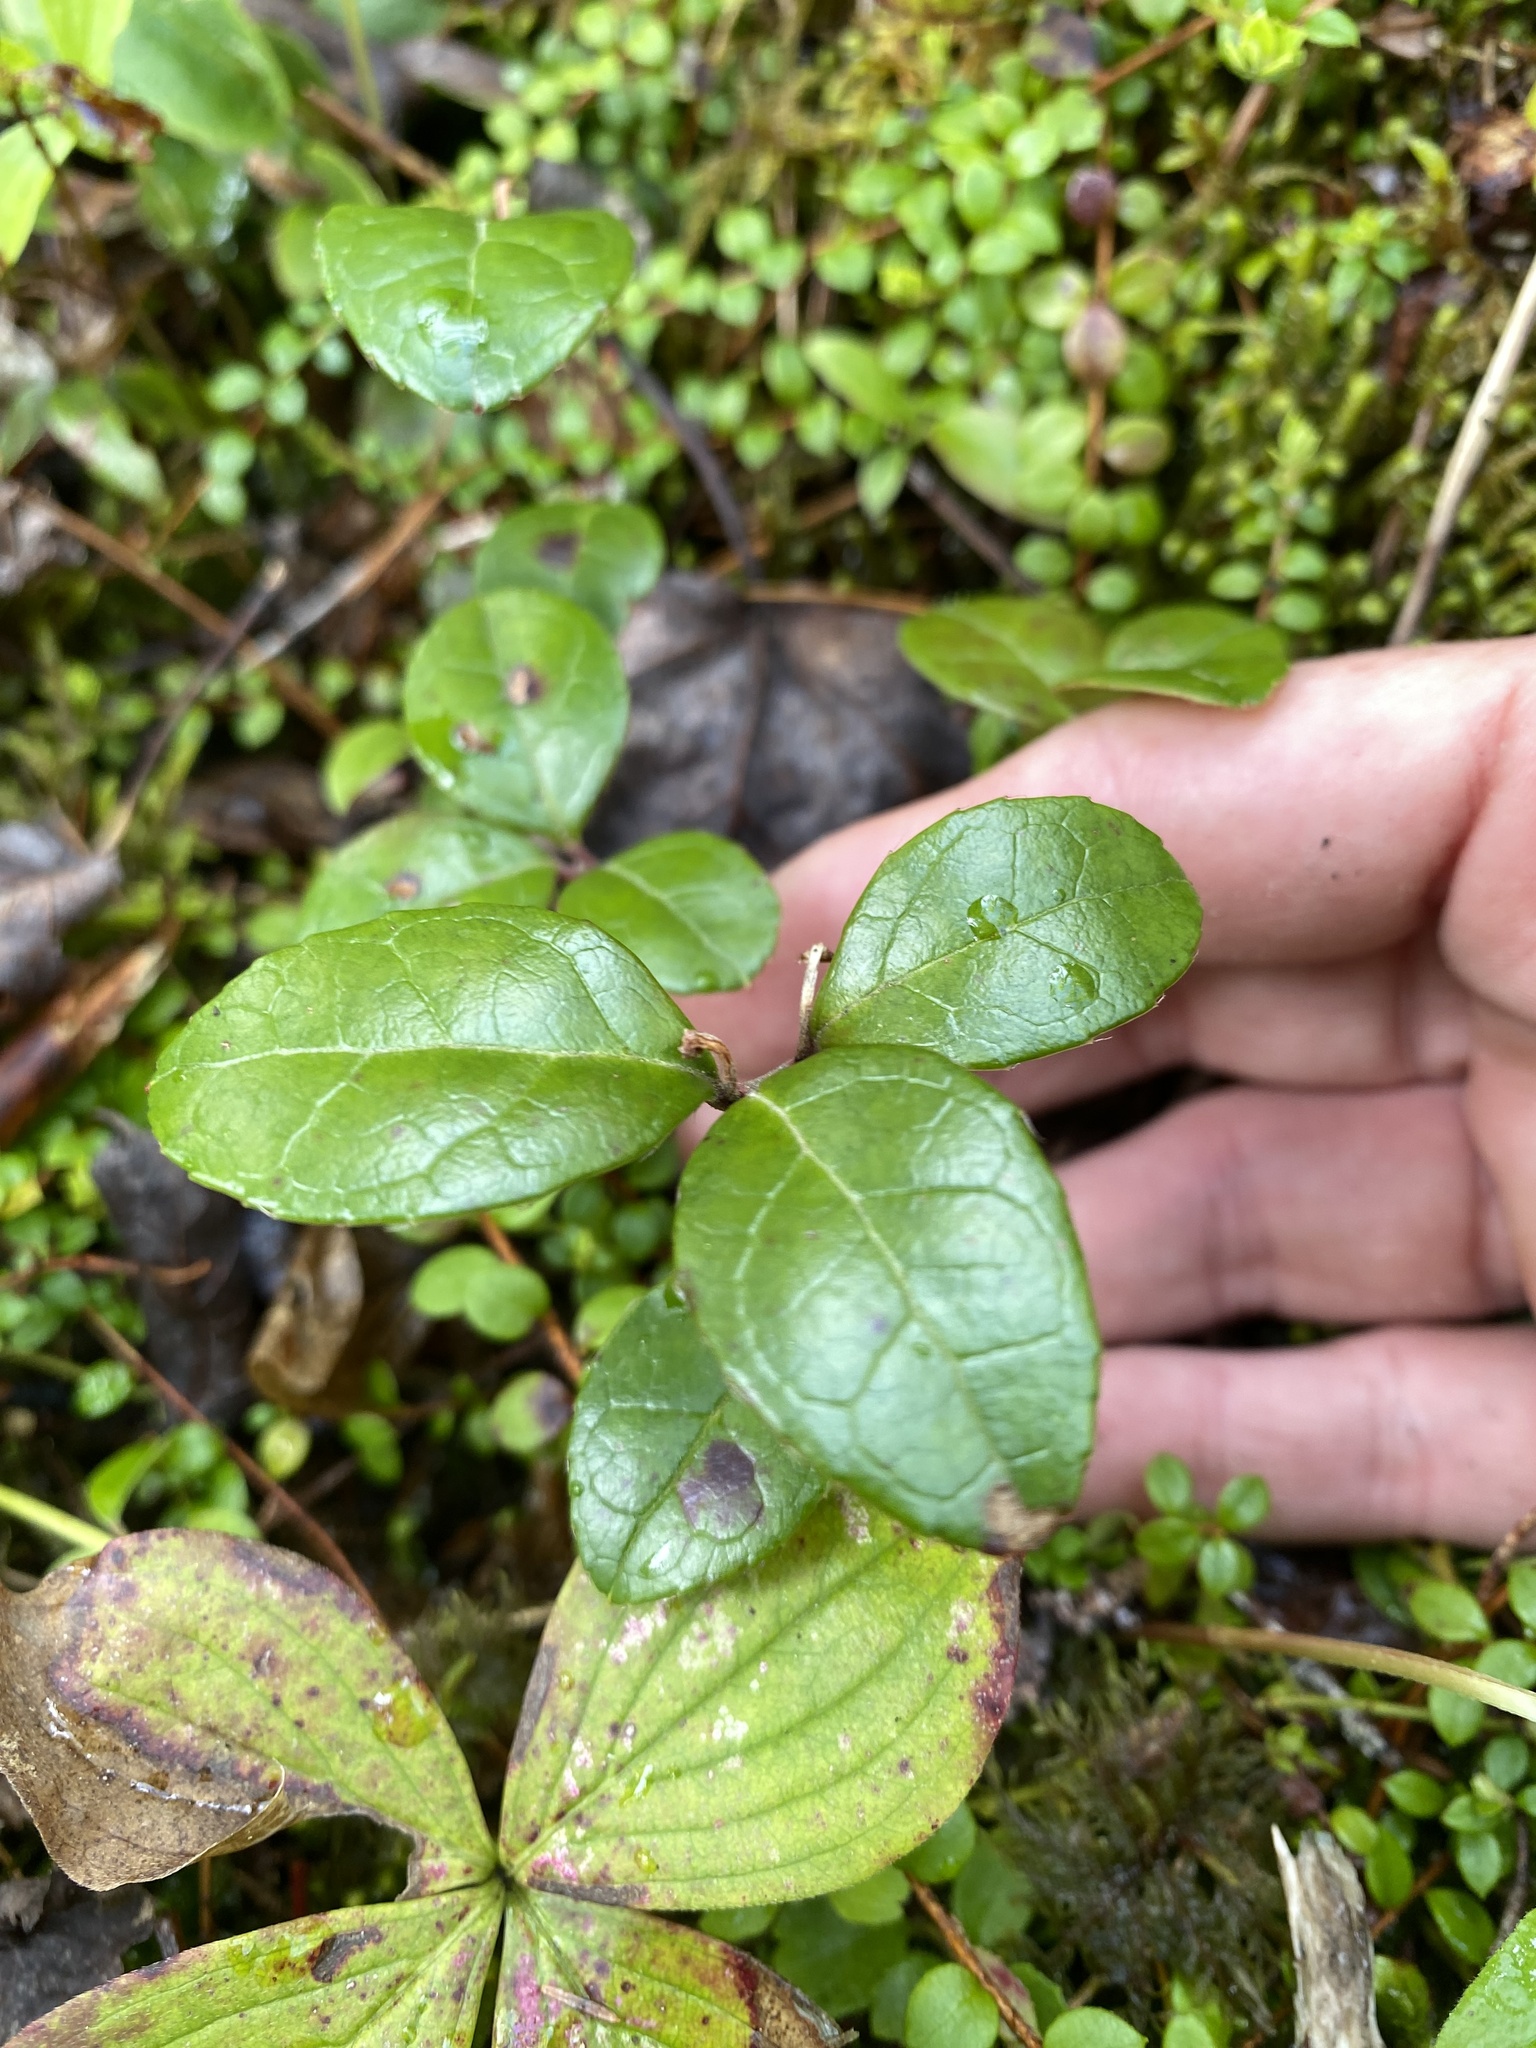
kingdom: Plantae
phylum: Tracheophyta
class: Magnoliopsida
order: Ericales
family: Ericaceae
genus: Gaultheria
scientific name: Gaultheria procumbens
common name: Checkerberry
